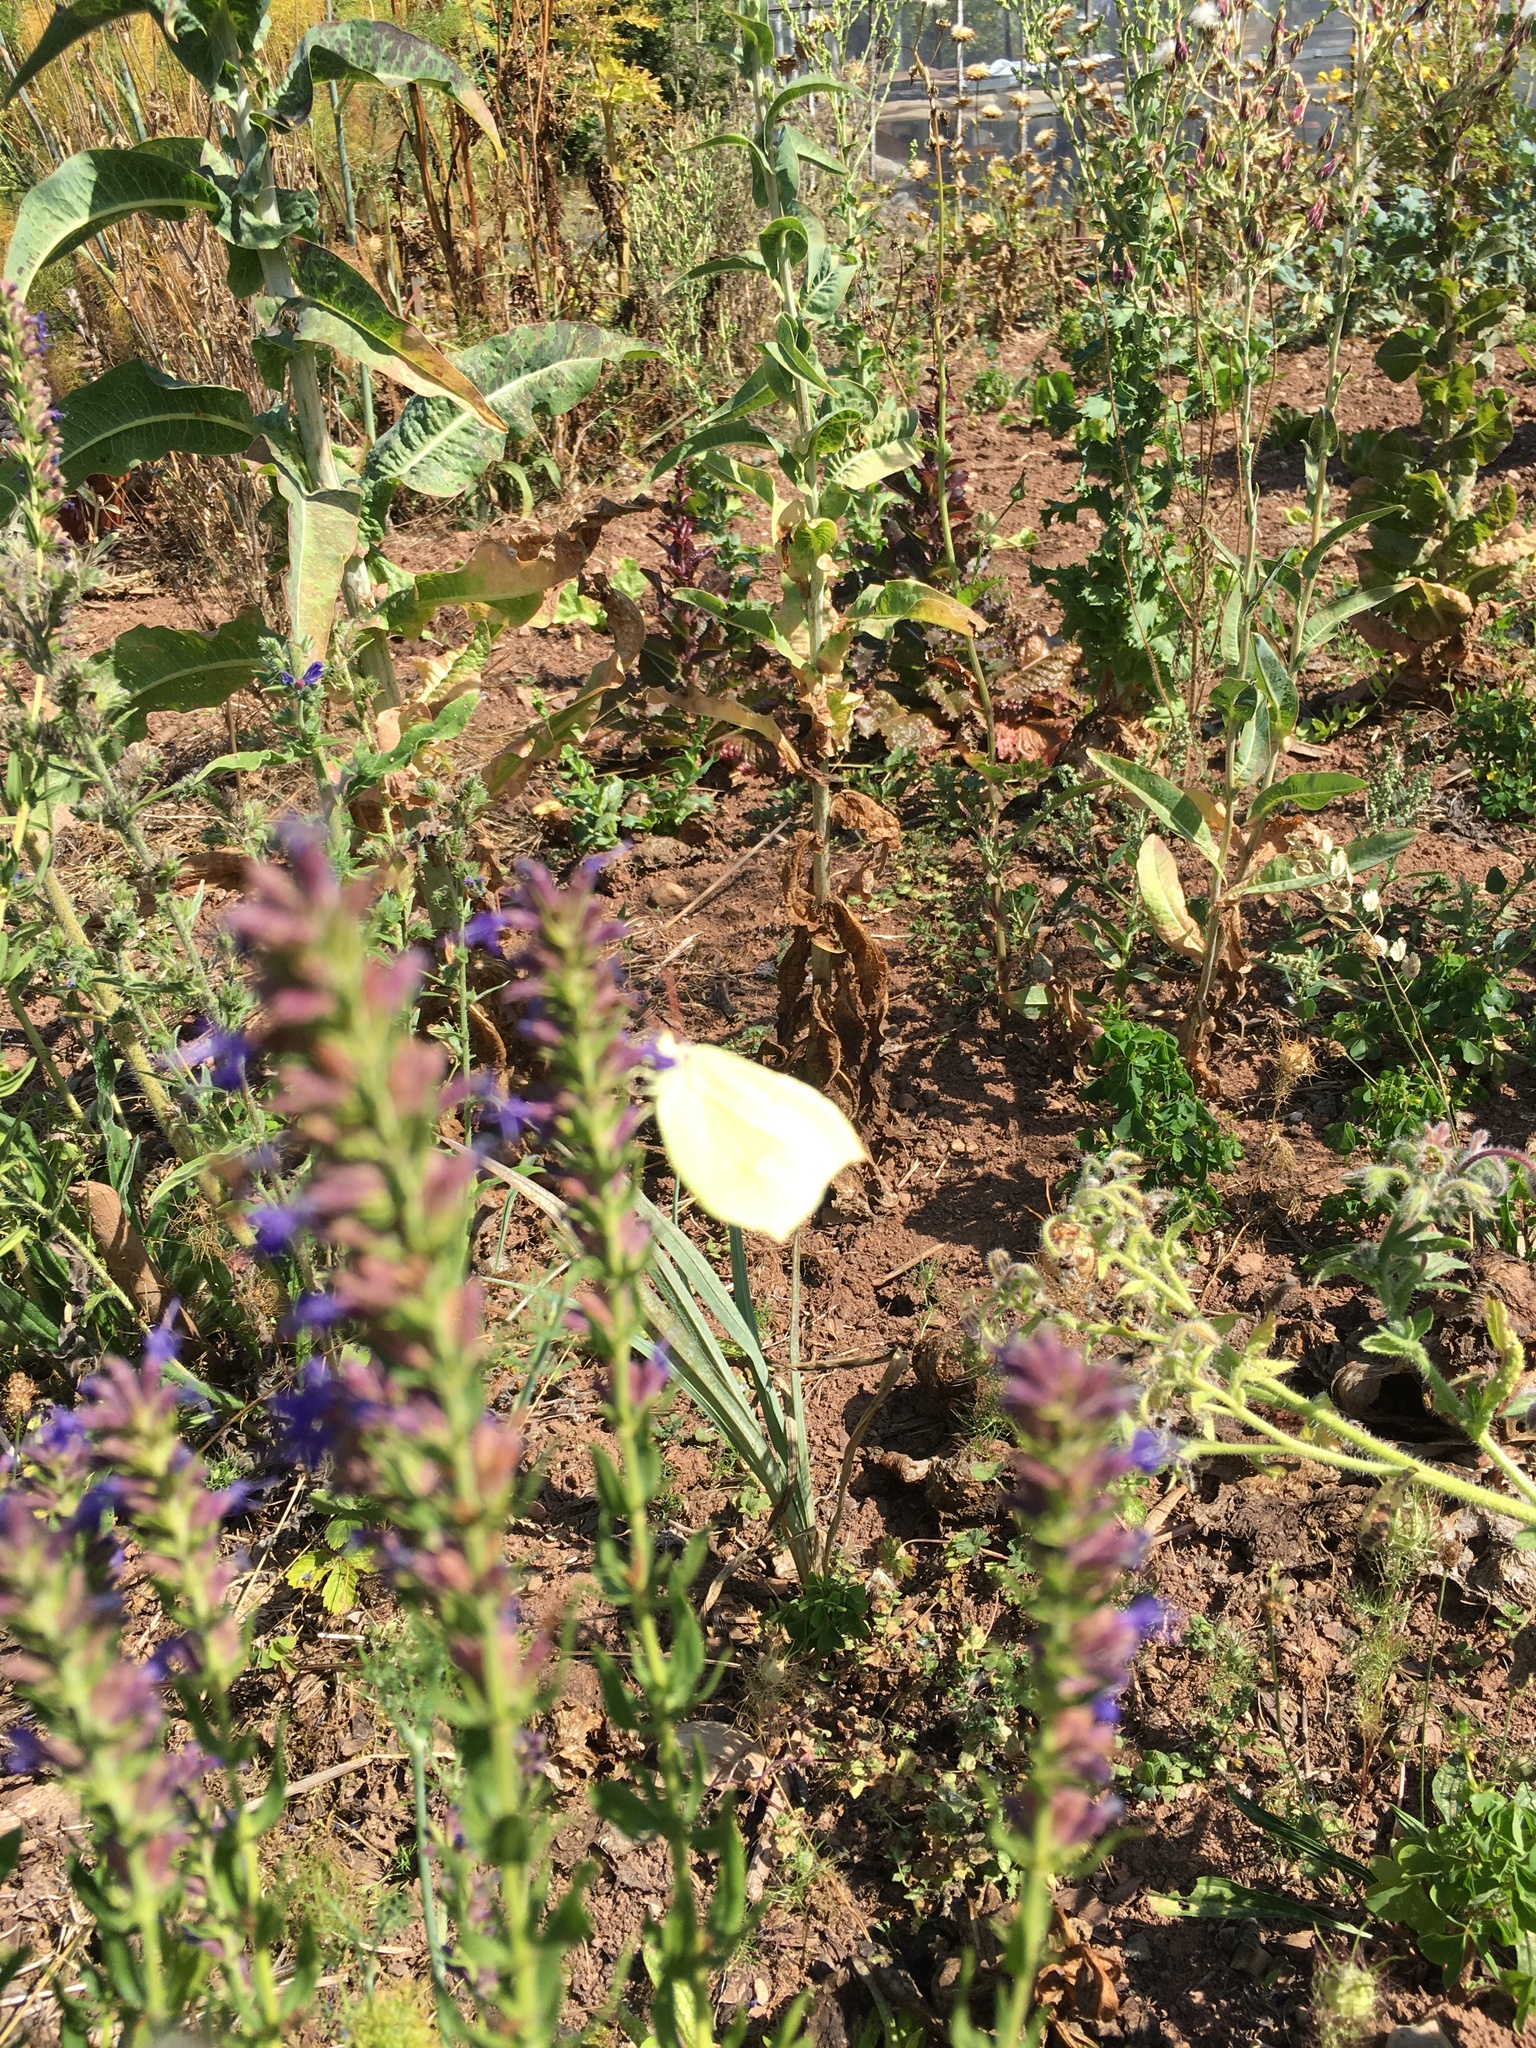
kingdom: Animalia
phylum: Arthropoda
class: Insecta
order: Lepidoptera
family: Pieridae
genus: Gonepteryx
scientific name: Gonepteryx rhamni
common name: Brimstone
